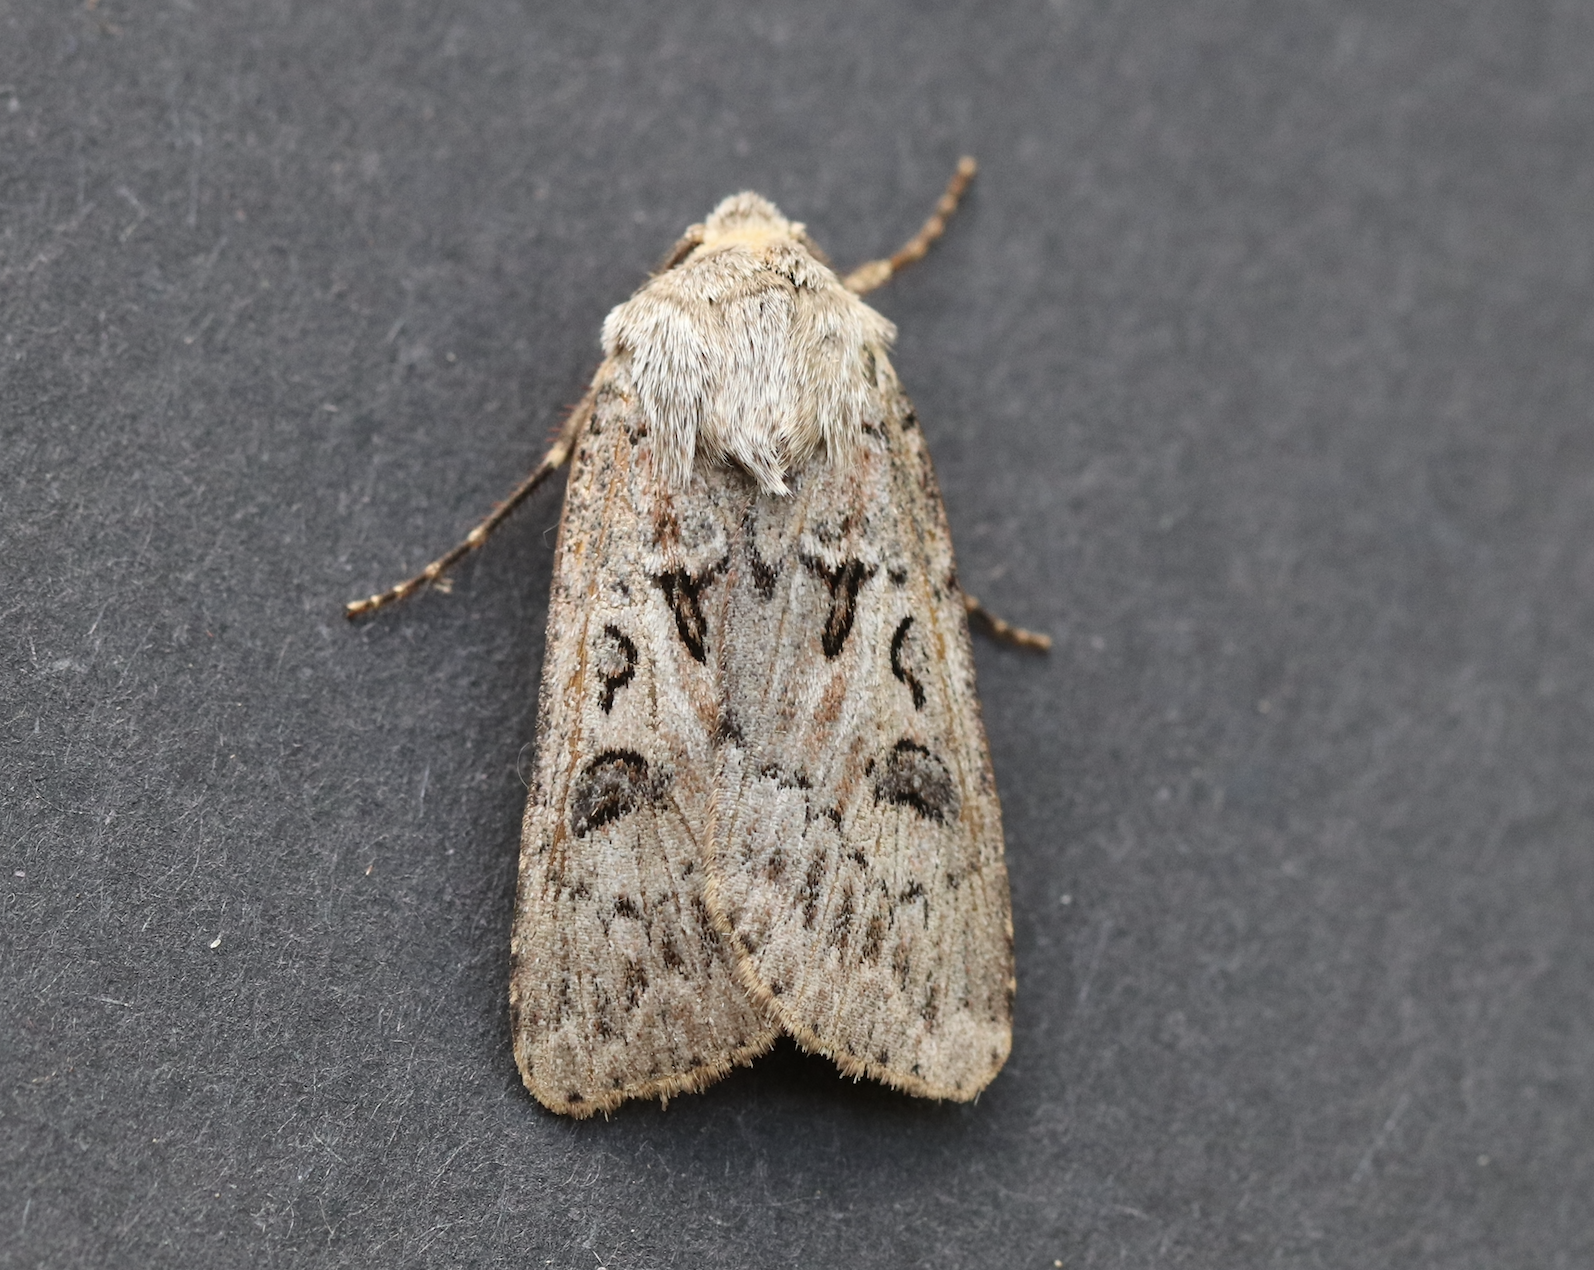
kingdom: Animalia
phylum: Arthropoda
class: Insecta
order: Lepidoptera
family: Noctuidae
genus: Agrotis
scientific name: Agrotis ruta
